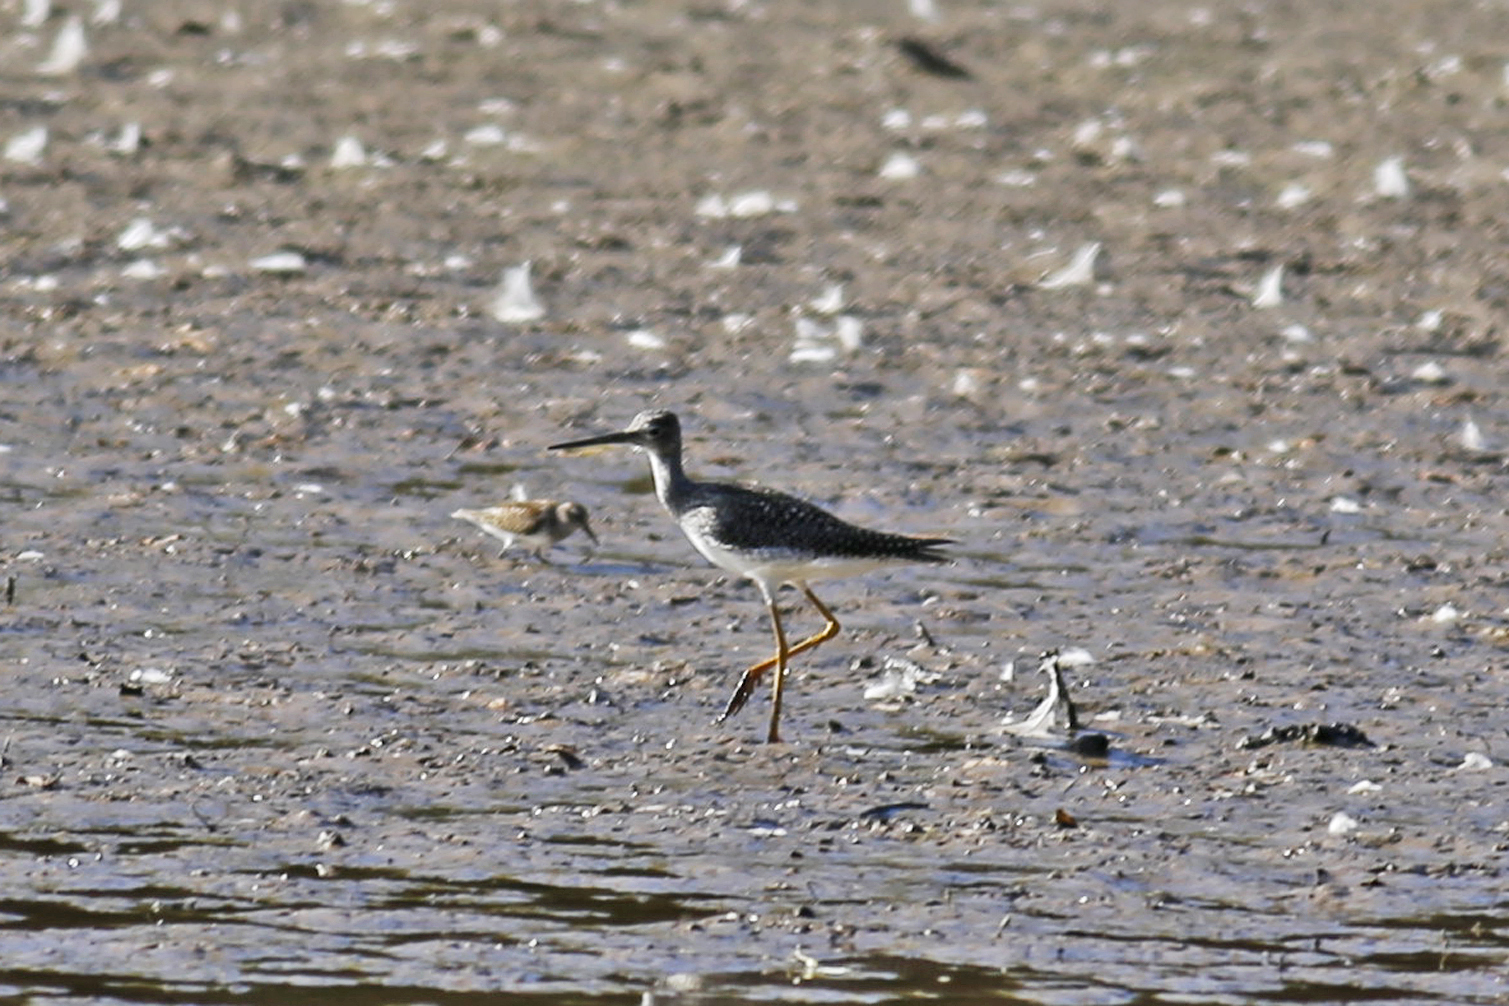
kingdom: Animalia
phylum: Chordata
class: Aves
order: Charadriiformes
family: Scolopacidae
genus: Tringa
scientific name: Tringa melanoleuca
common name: Greater yellowlegs
